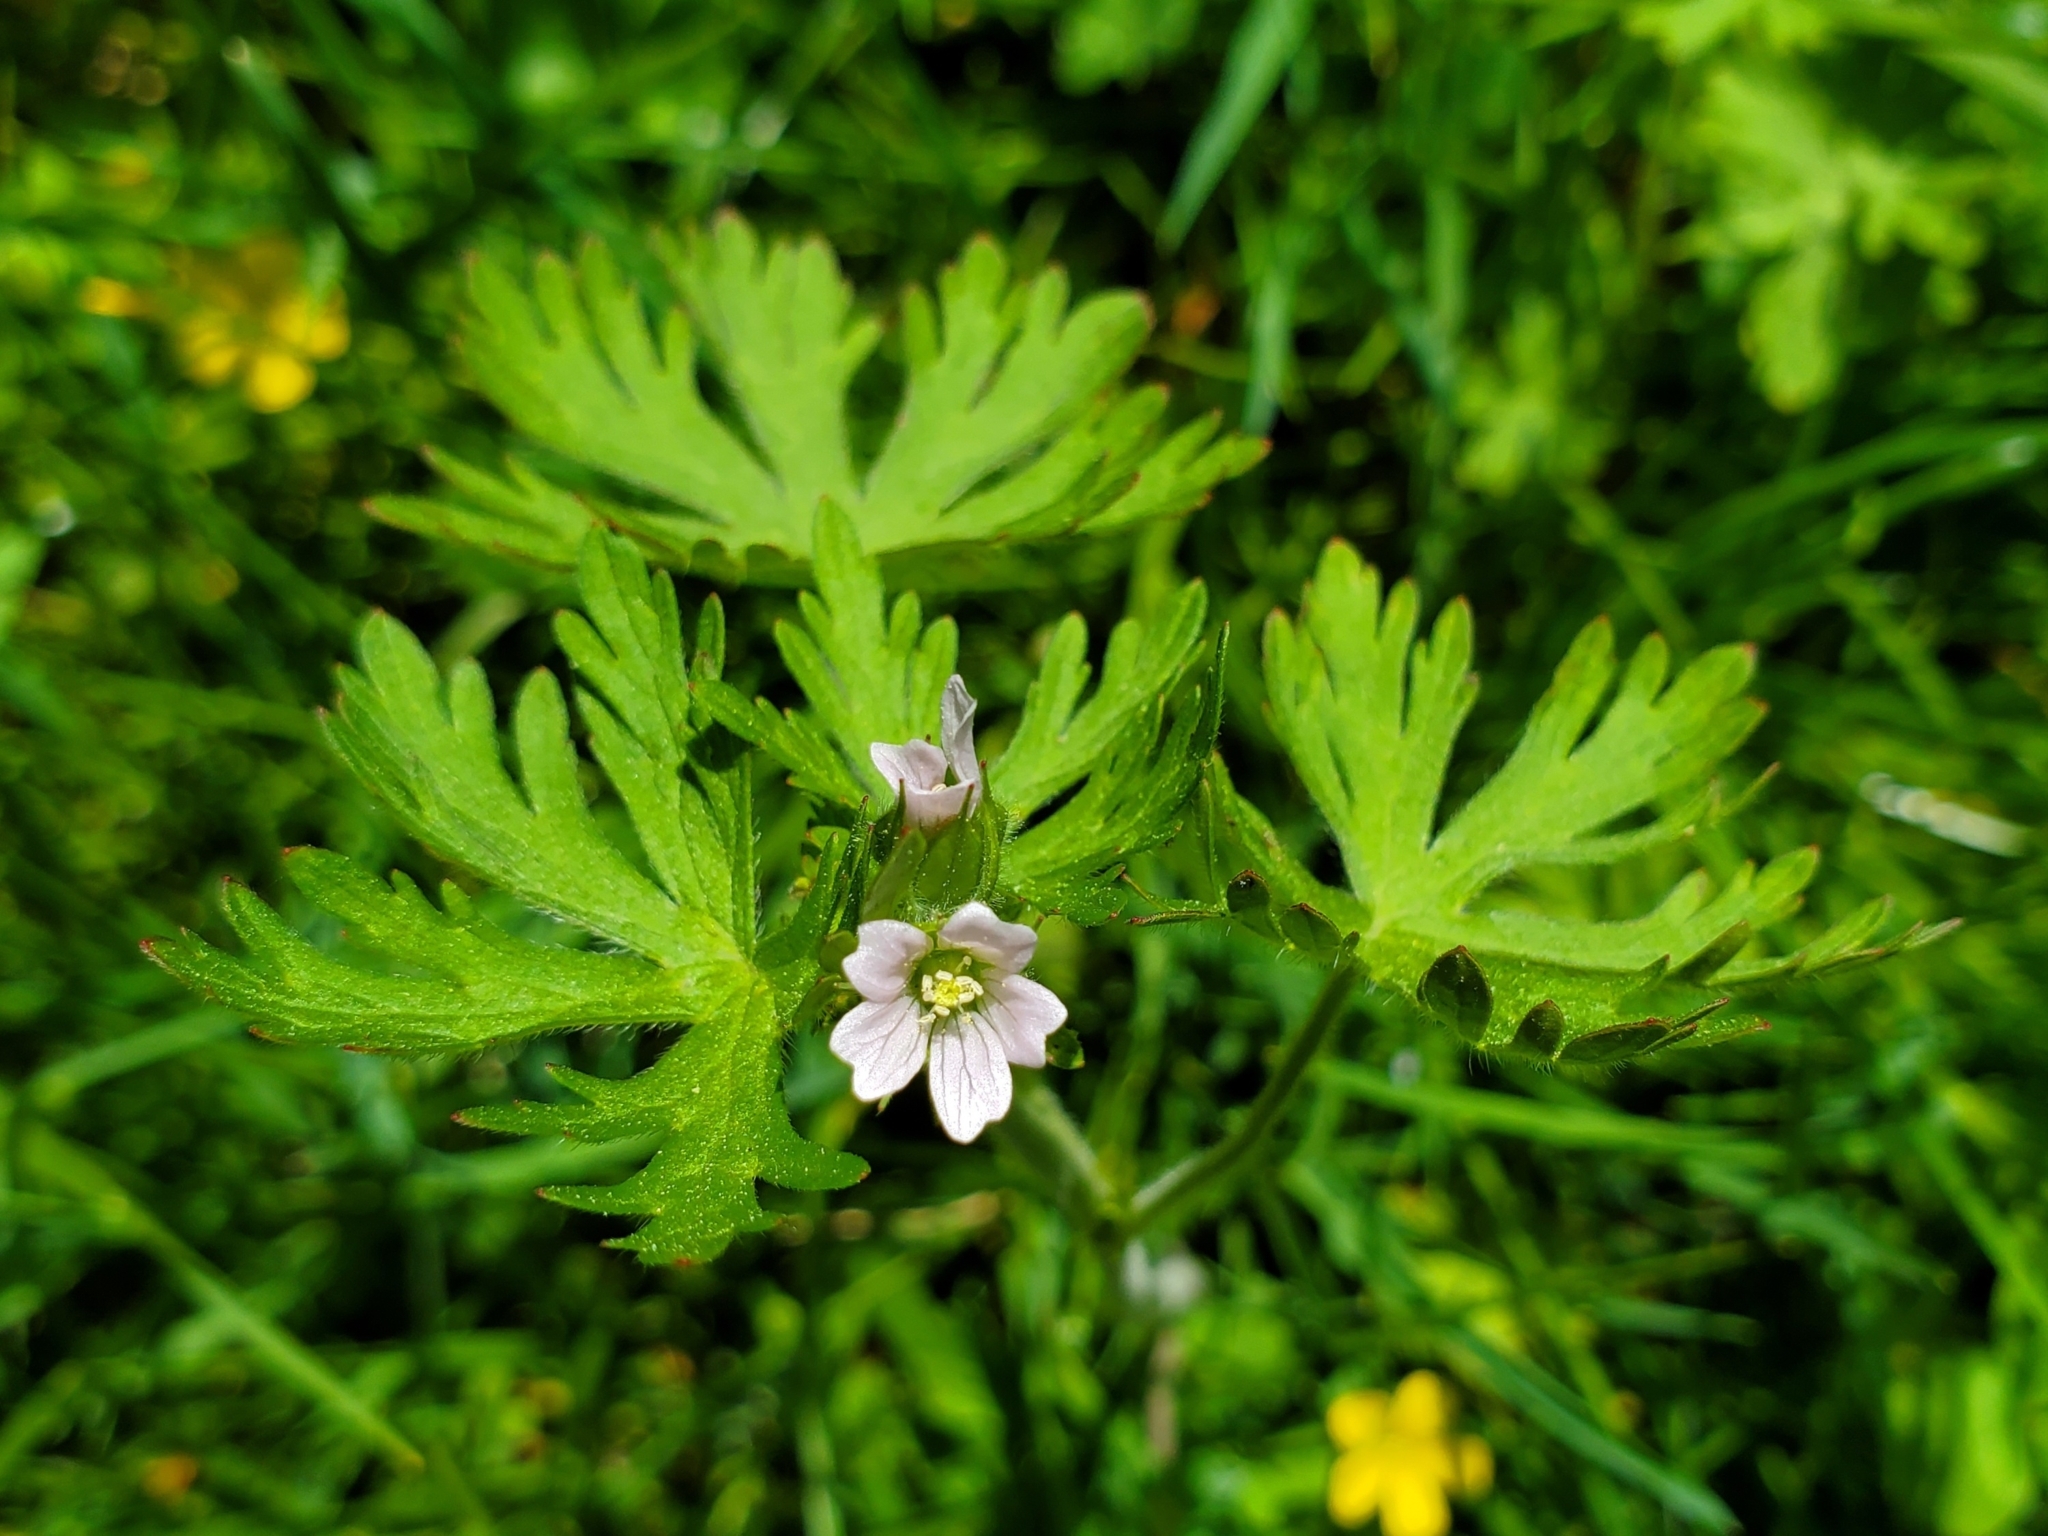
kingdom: Plantae
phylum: Tracheophyta
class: Magnoliopsida
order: Geraniales
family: Geraniaceae
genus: Geranium
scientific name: Geranium carolinianum
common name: Carolina crane's-bill
